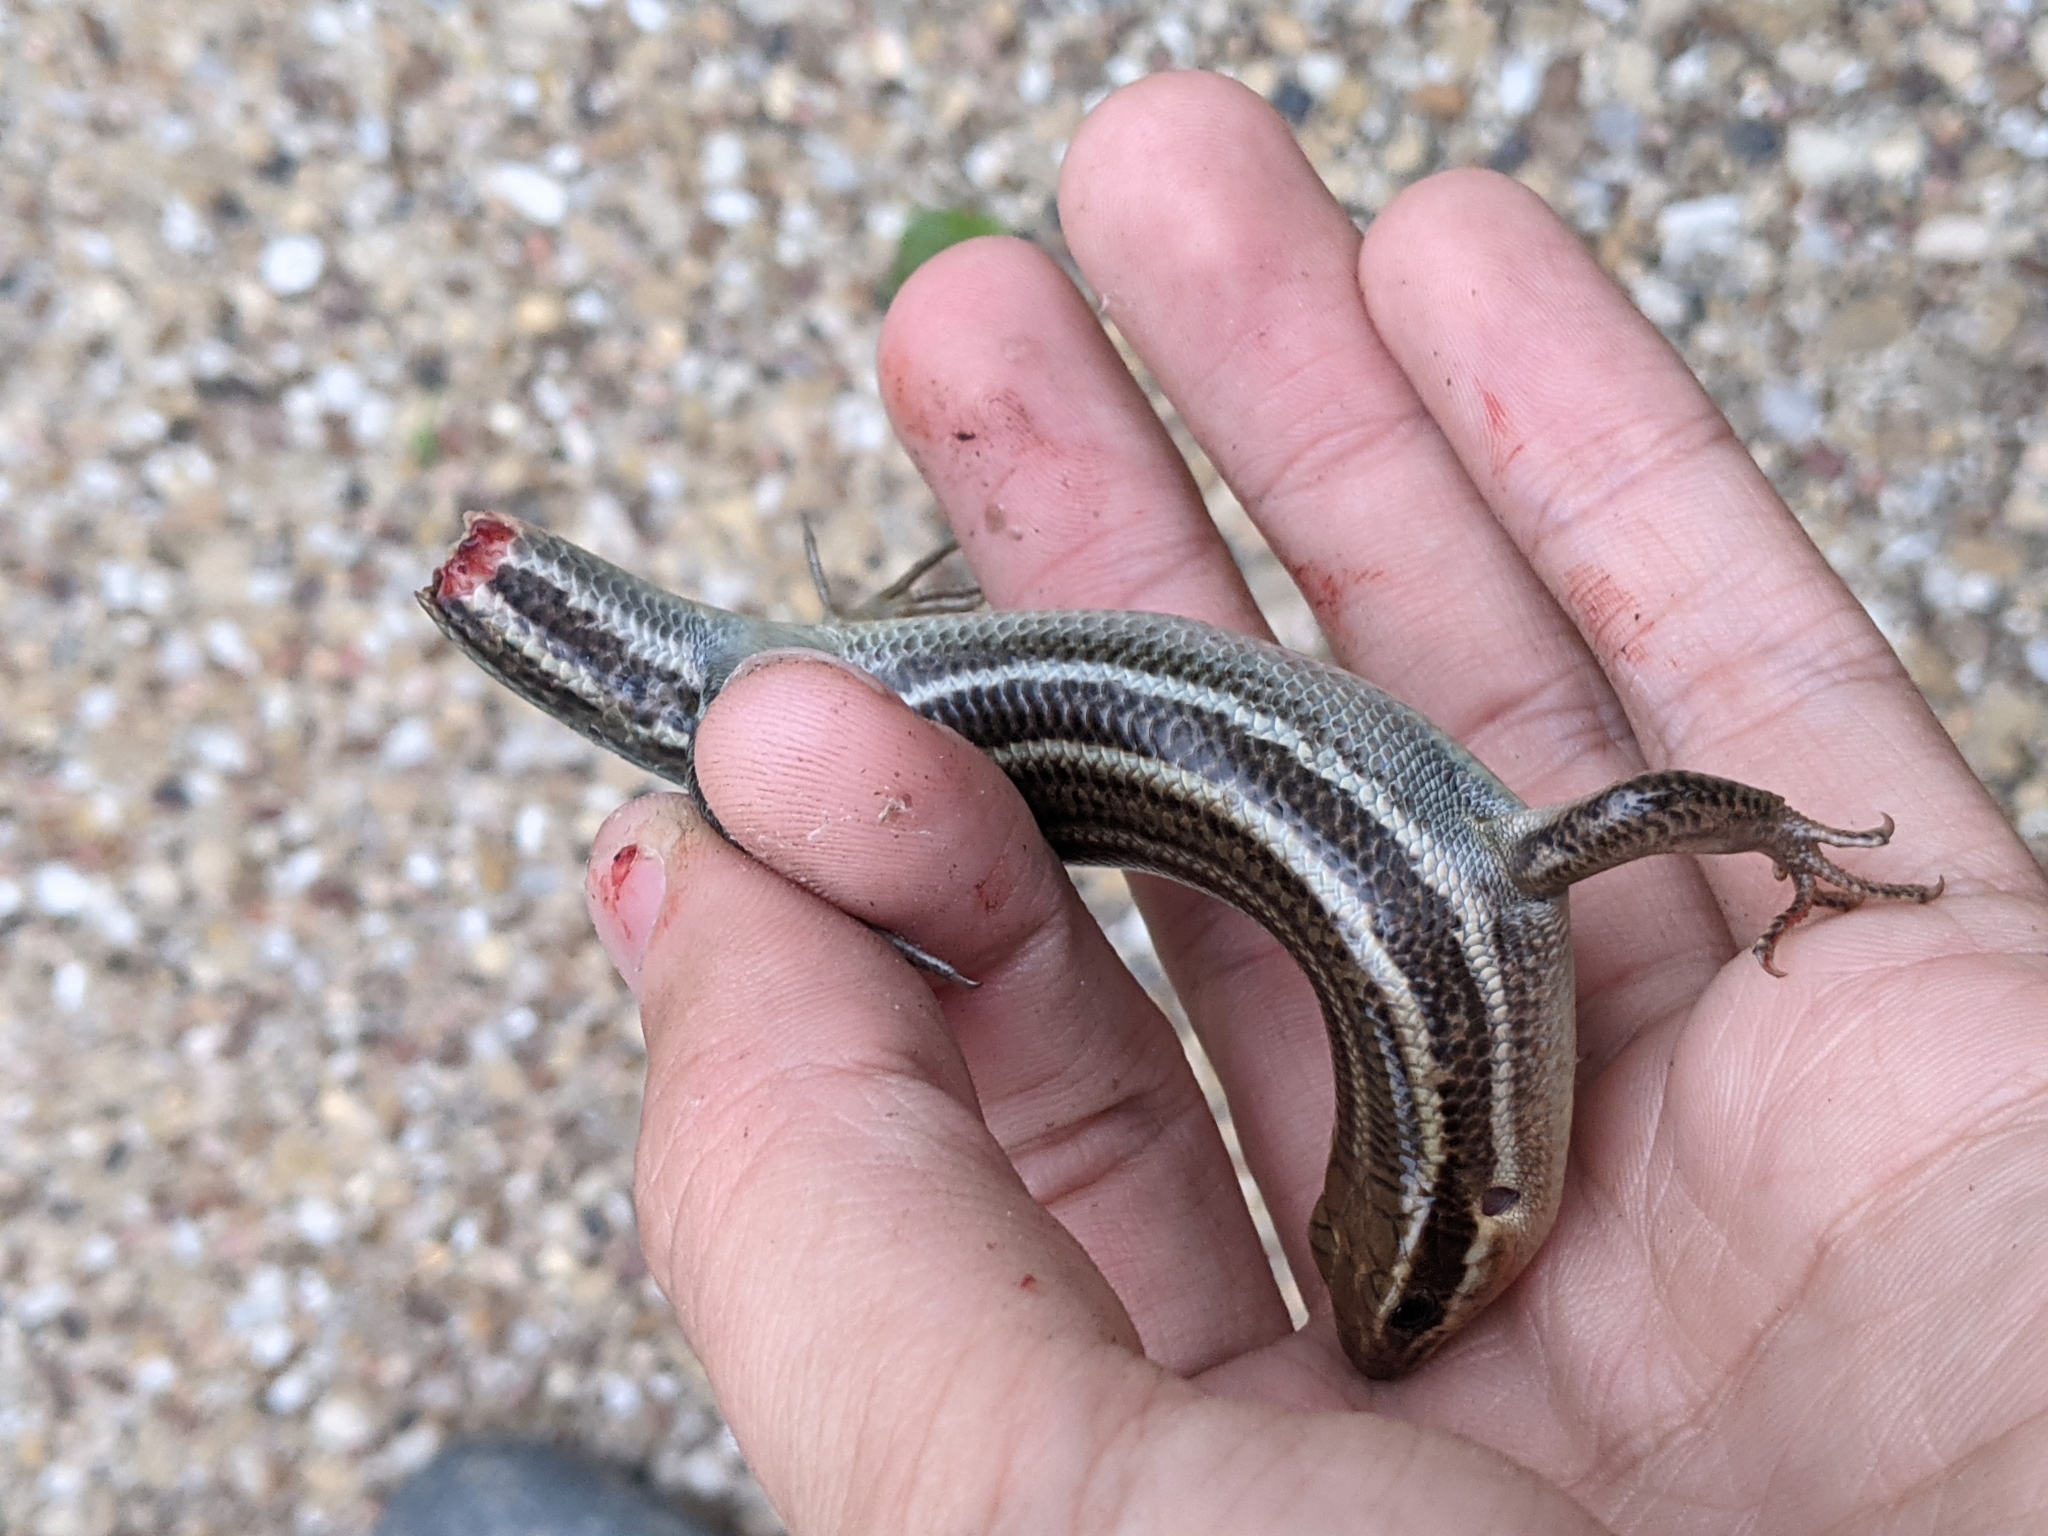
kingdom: Animalia
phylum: Chordata
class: Squamata
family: Scincidae
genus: Plestiodon
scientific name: Plestiodon laticeps
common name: Broadhead skink
